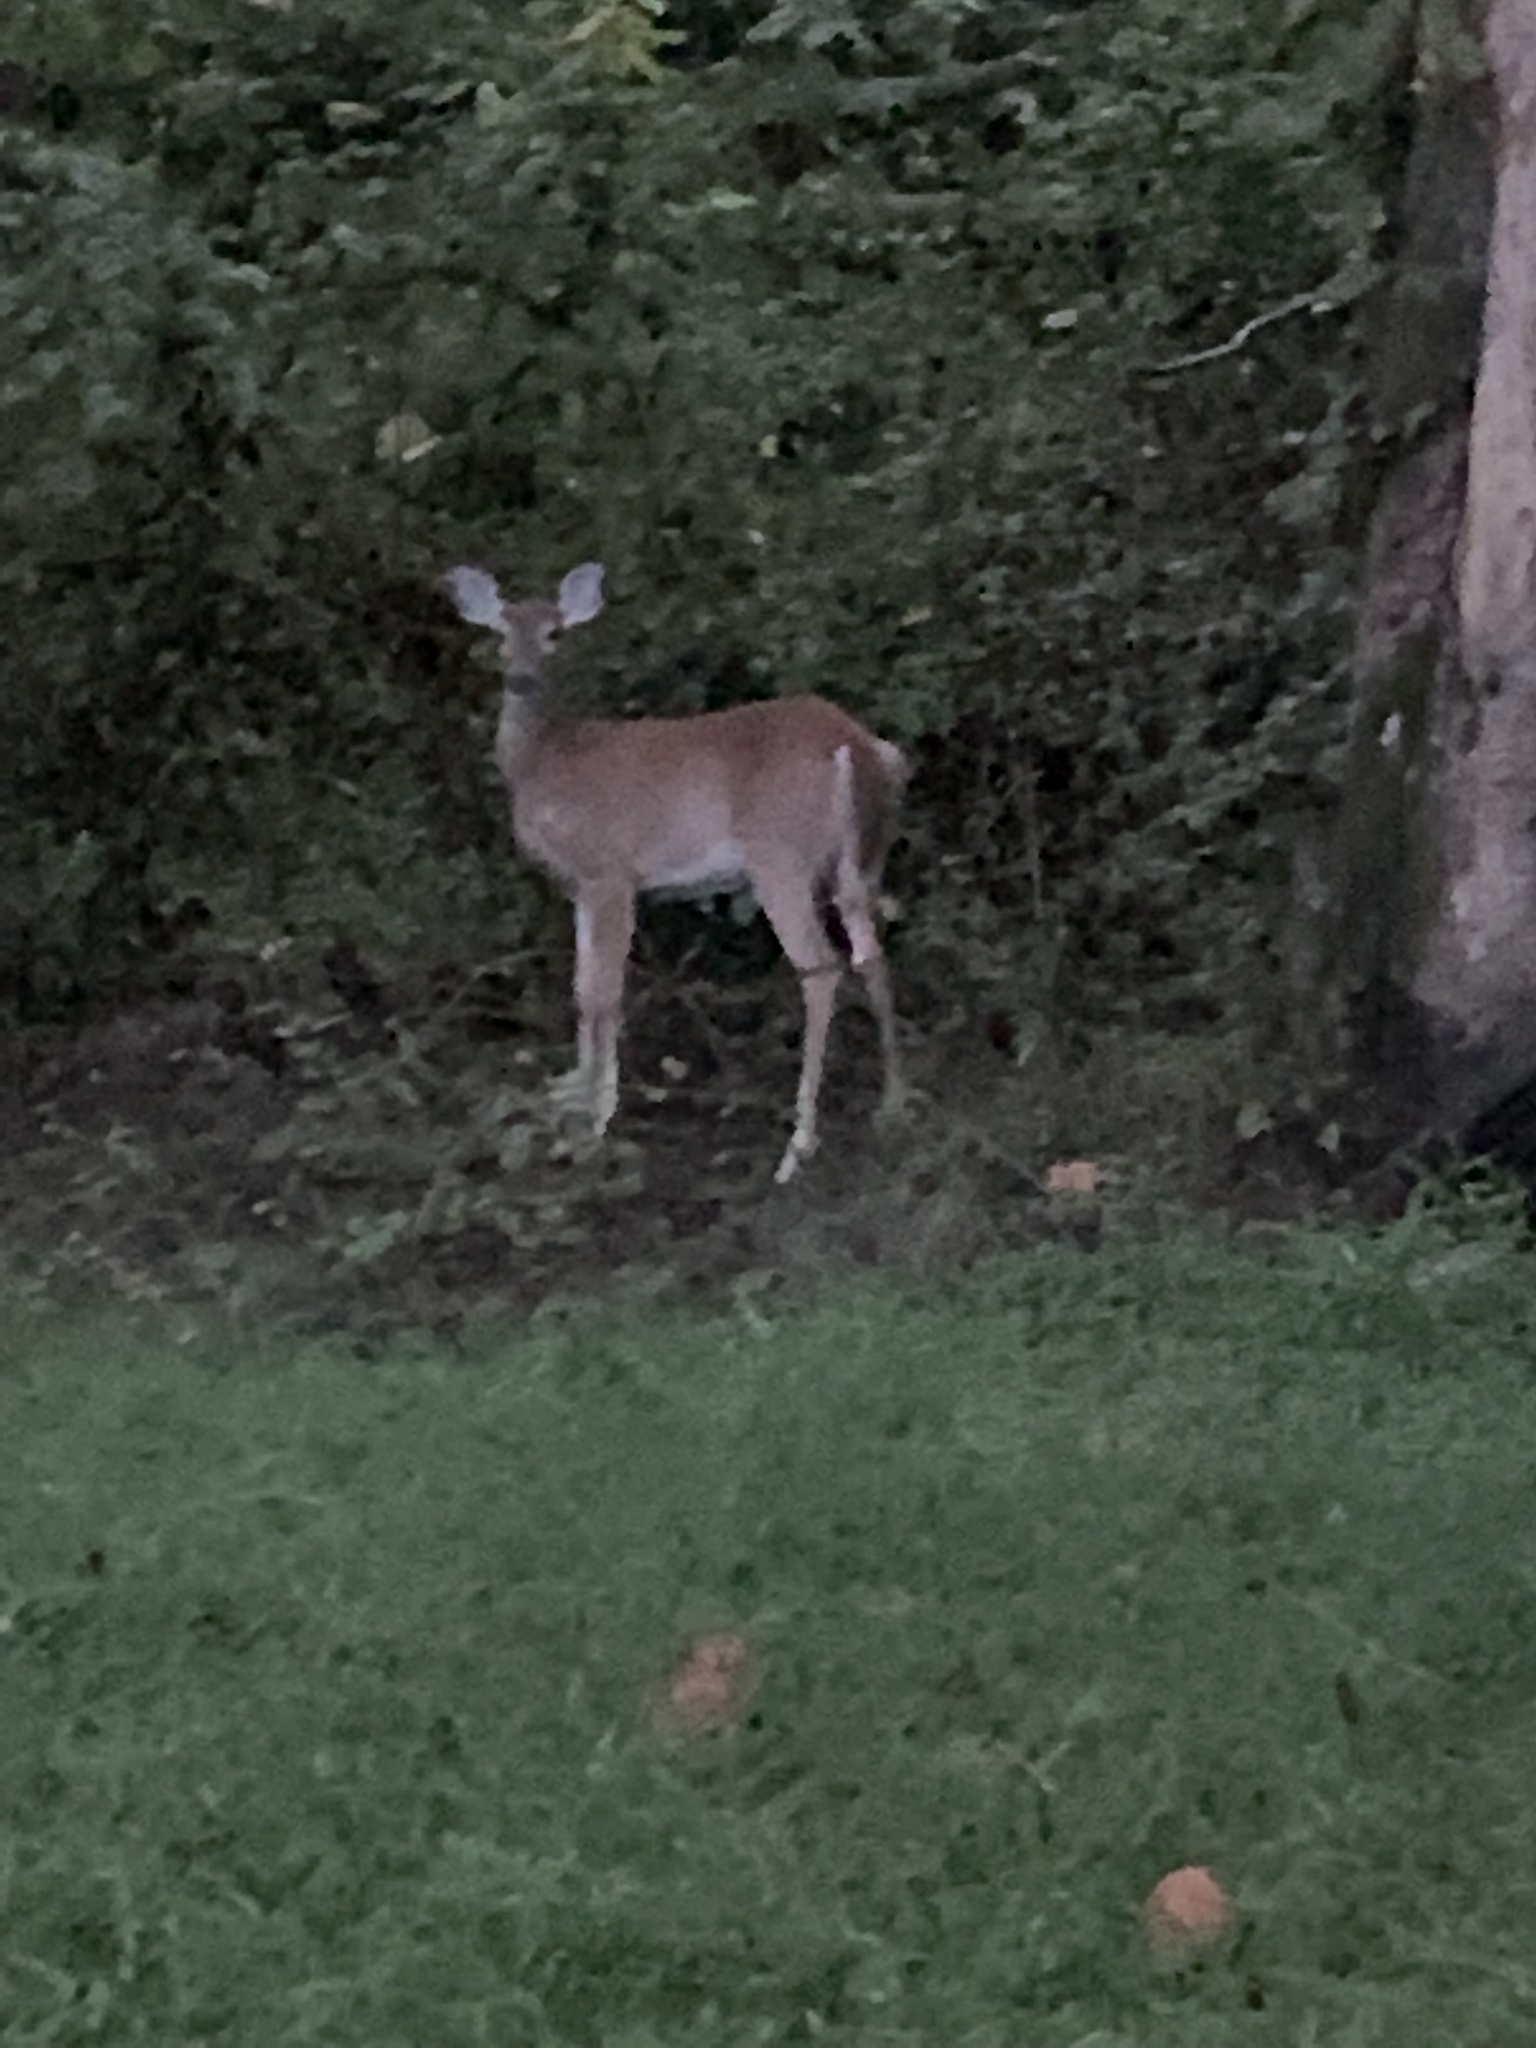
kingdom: Animalia
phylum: Chordata
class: Mammalia
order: Artiodactyla
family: Cervidae
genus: Odocoileus
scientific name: Odocoileus virginianus
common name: White-tailed deer
